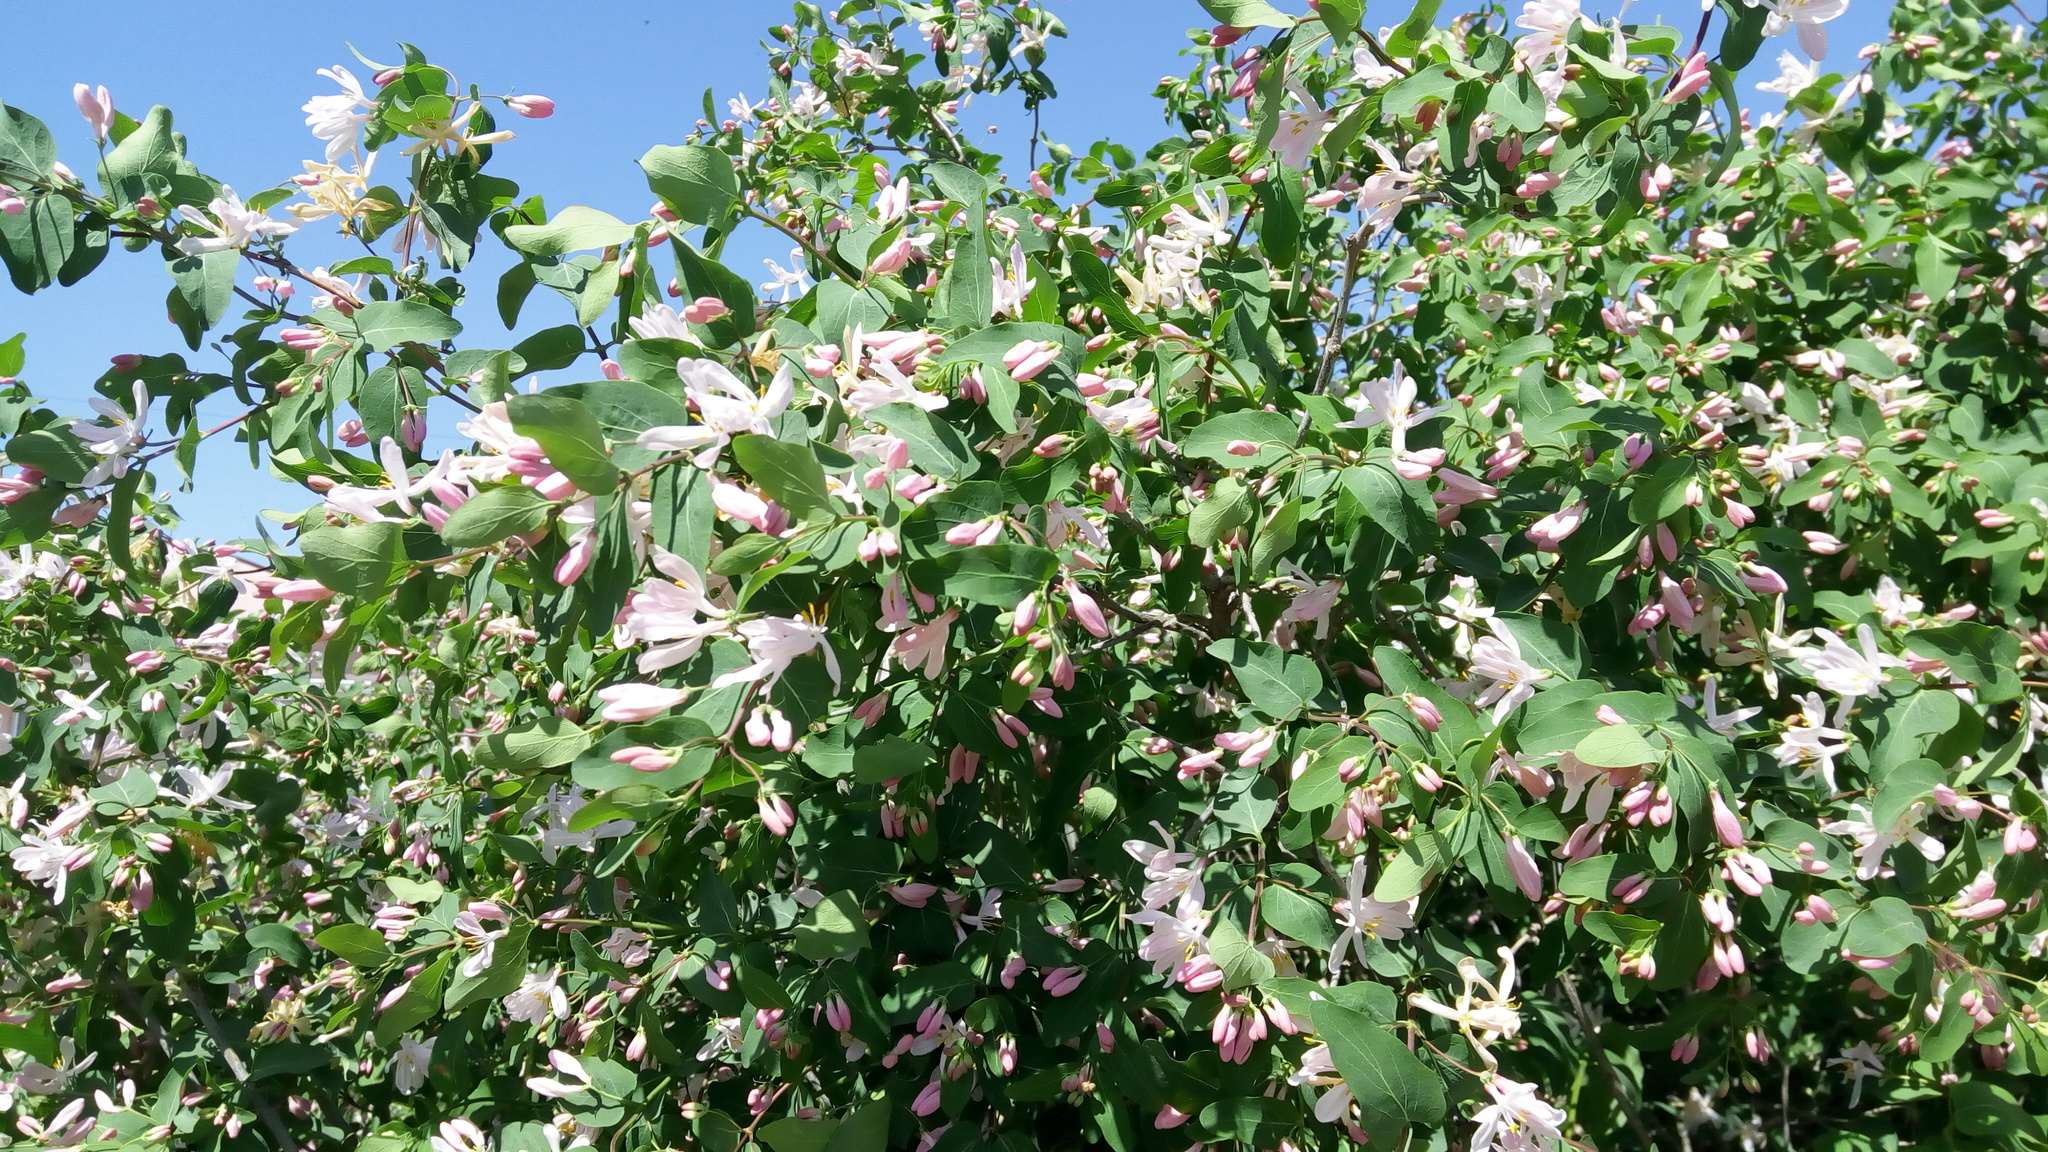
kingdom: Plantae
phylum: Tracheophyta
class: Magnoliopsida
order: Dipsacales
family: Caprifoliaceae
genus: Lonicera
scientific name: Lonicera tatarica
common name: Tatarian honeysuckle
